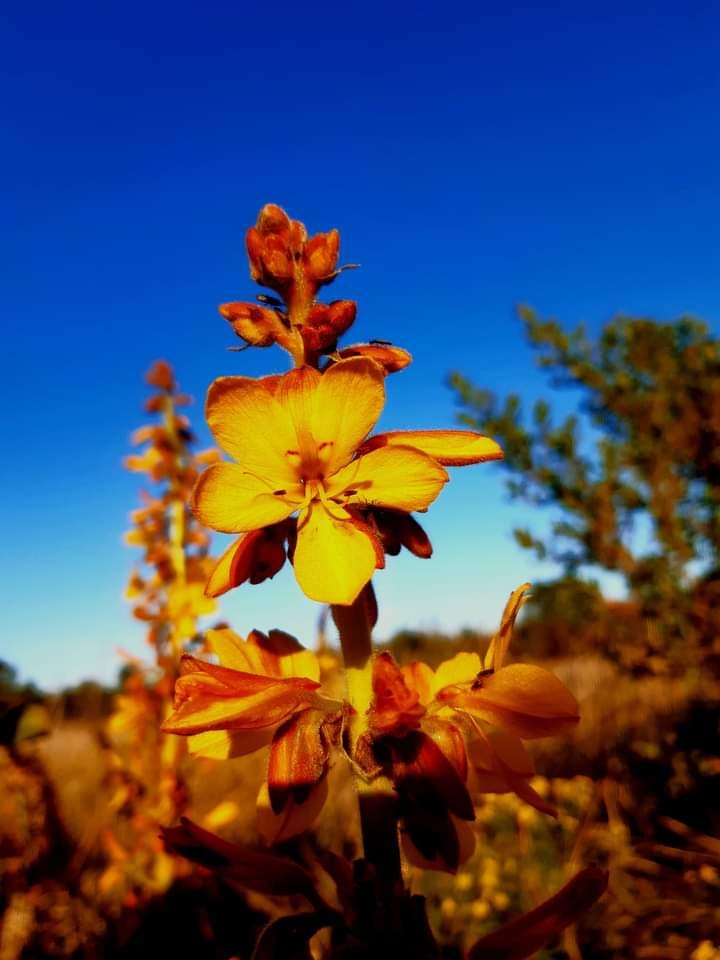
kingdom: Plantae
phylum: Tracheophyta
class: Liliopsida
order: Commelinales
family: Haemodoraceae
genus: Wachendorfia
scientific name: Wachendorfia thyrsiflora
